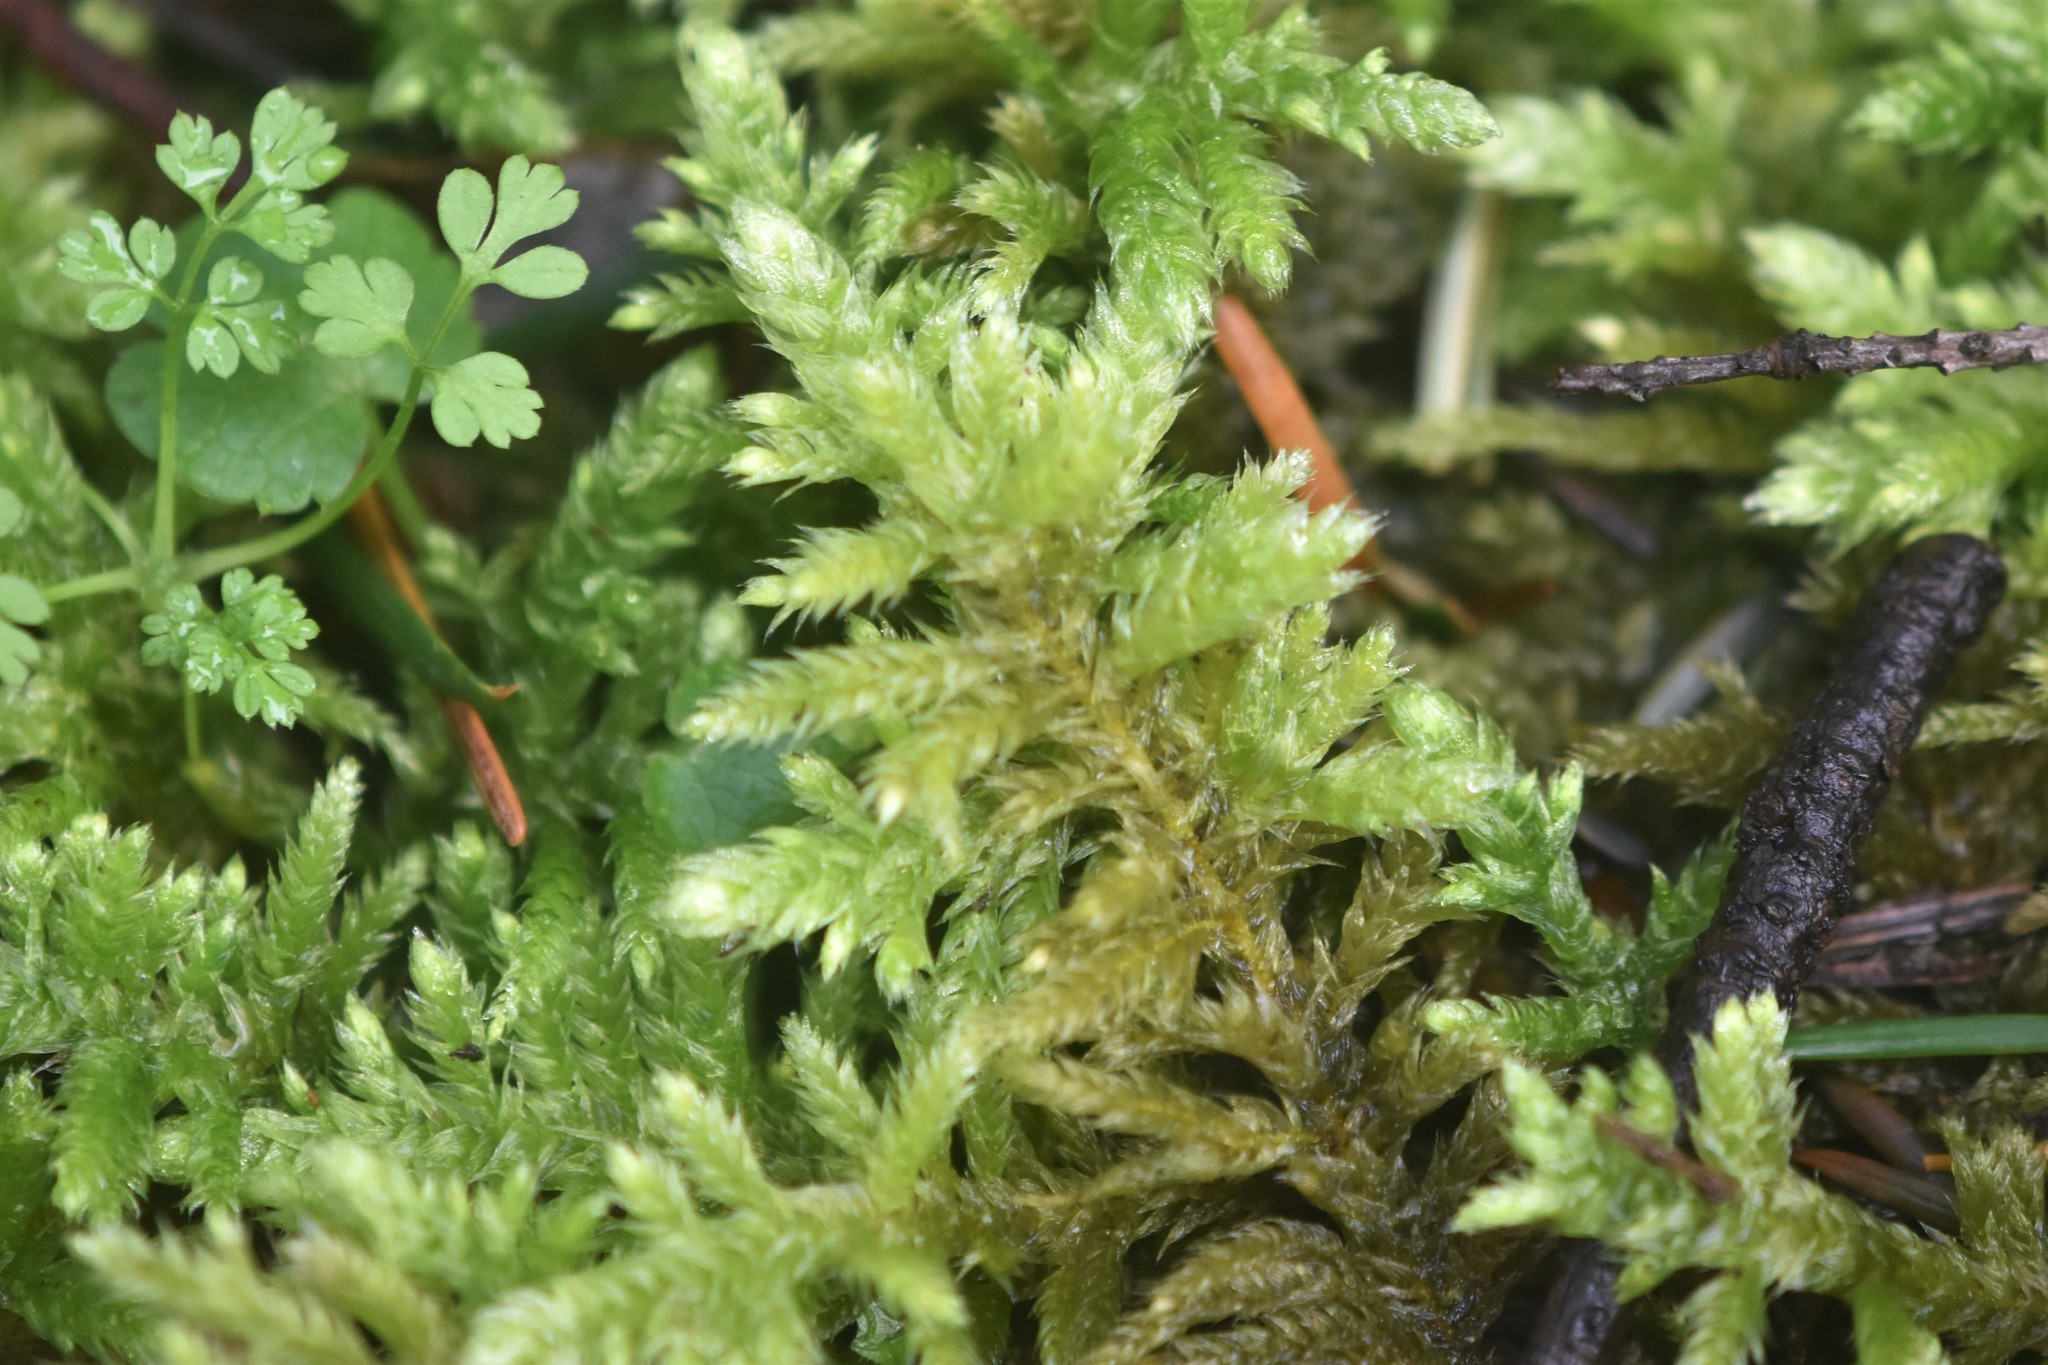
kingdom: Plantae
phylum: Bryophyta
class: Bryopsida
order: Hypnales
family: Brachytheciaceae
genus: Homalothecium
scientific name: Homalothecium megaptilum
